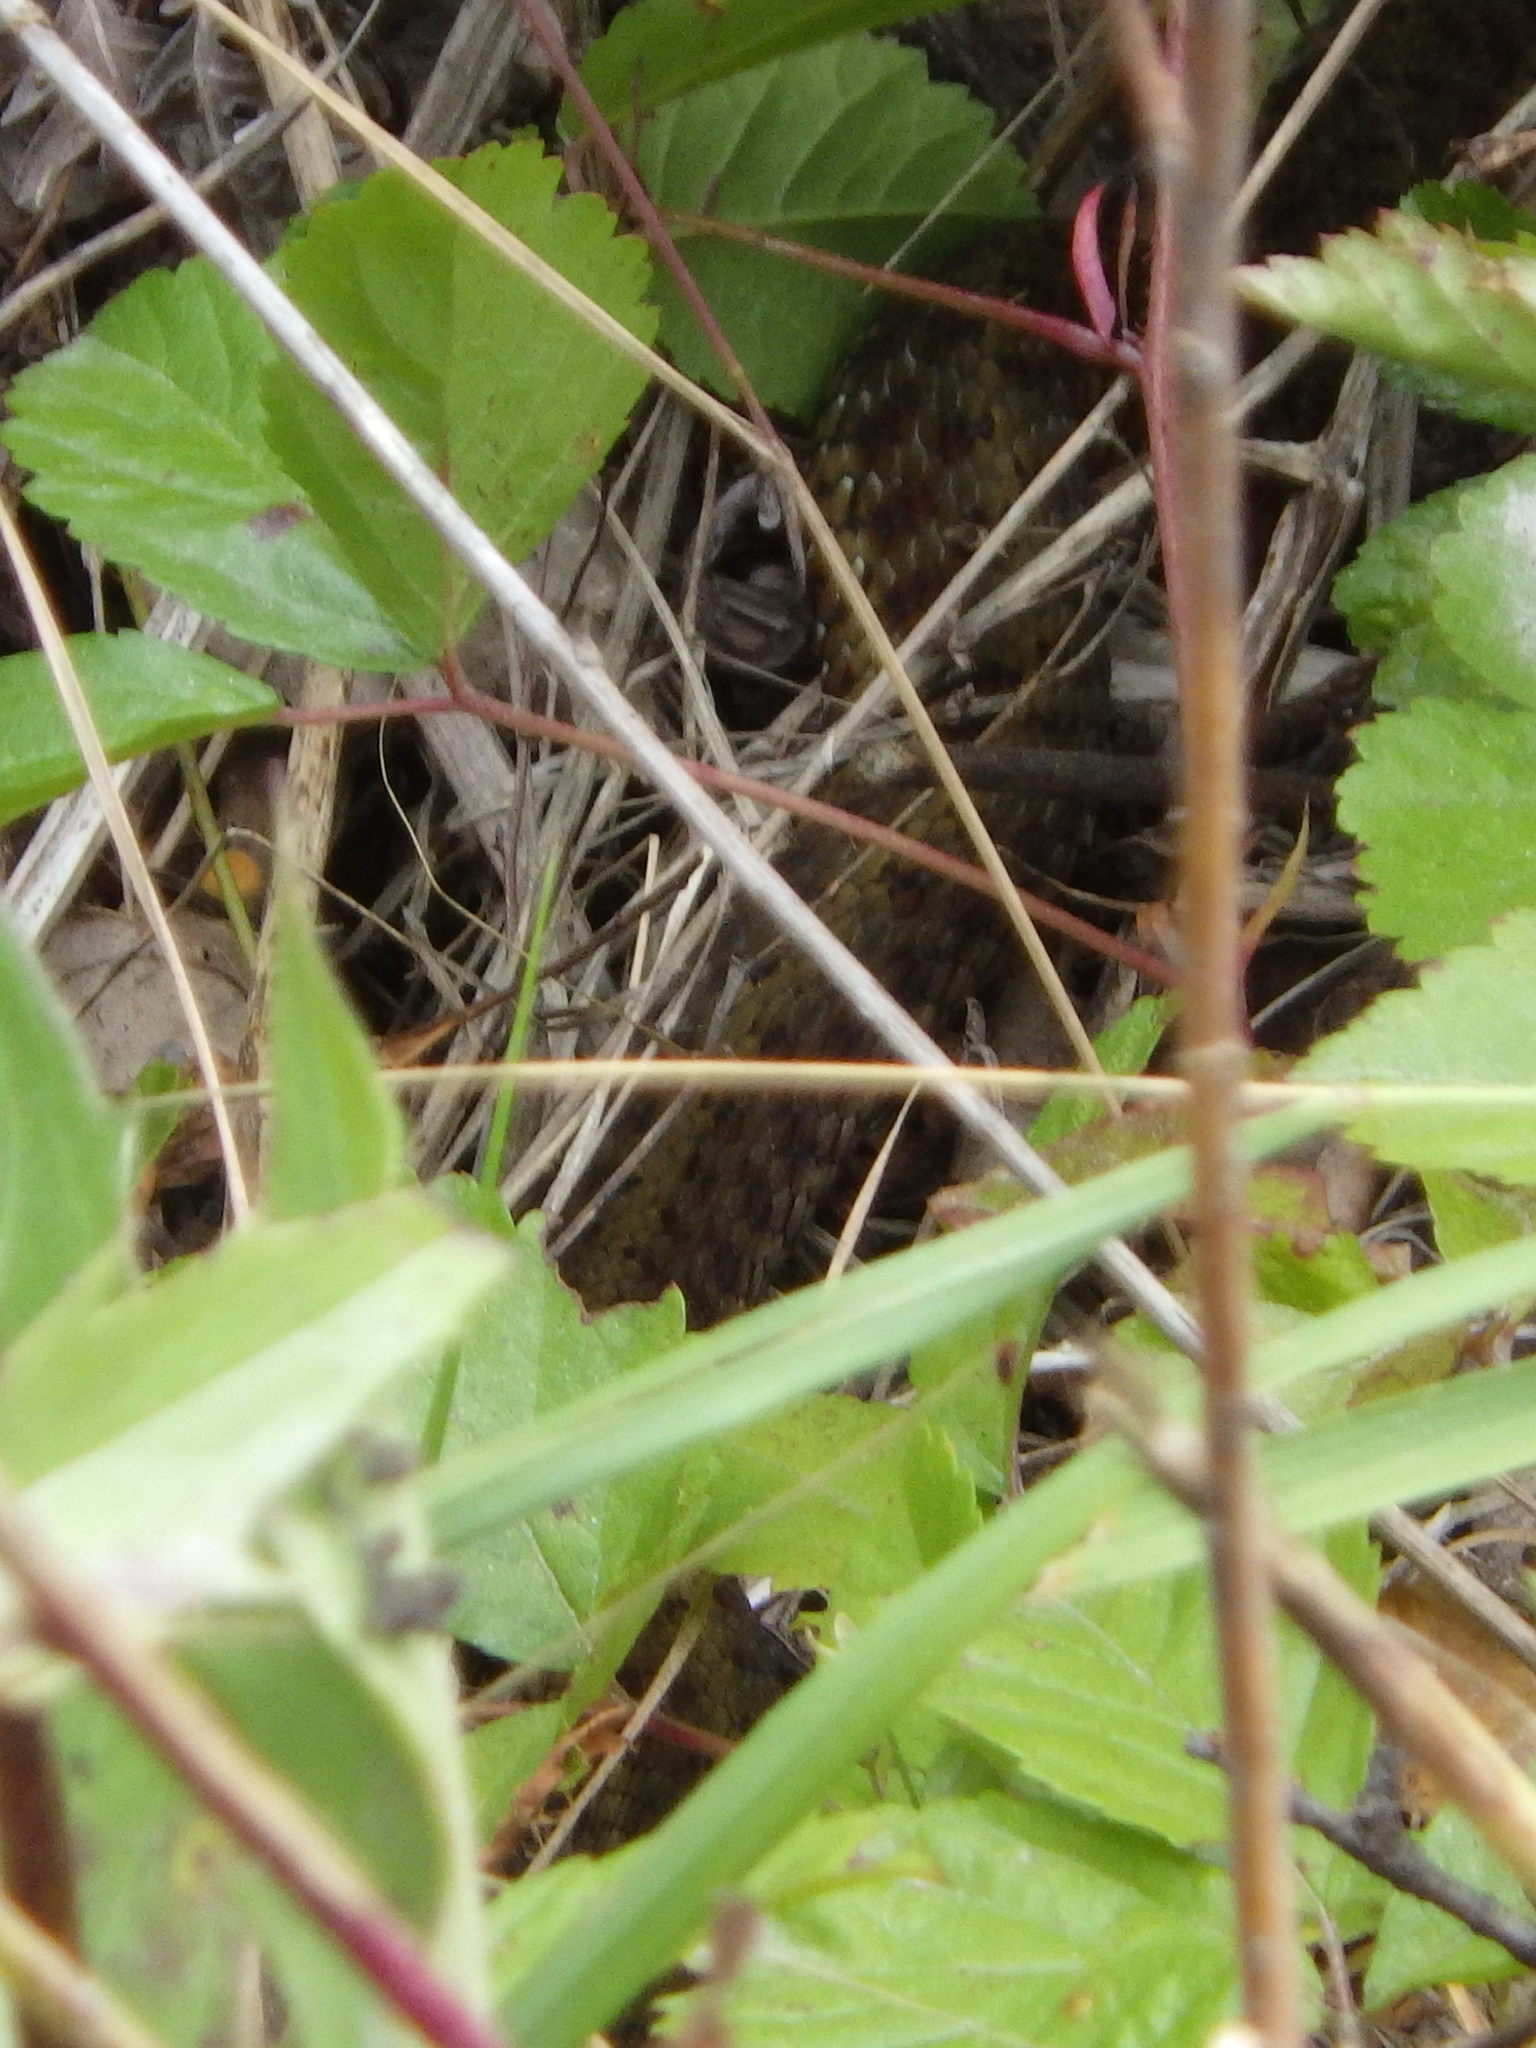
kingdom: Animalia
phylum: Chordata
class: Squamata
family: Colubridae
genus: Thamnophis
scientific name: Thamnophis sirtalis
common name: Common garter snake
